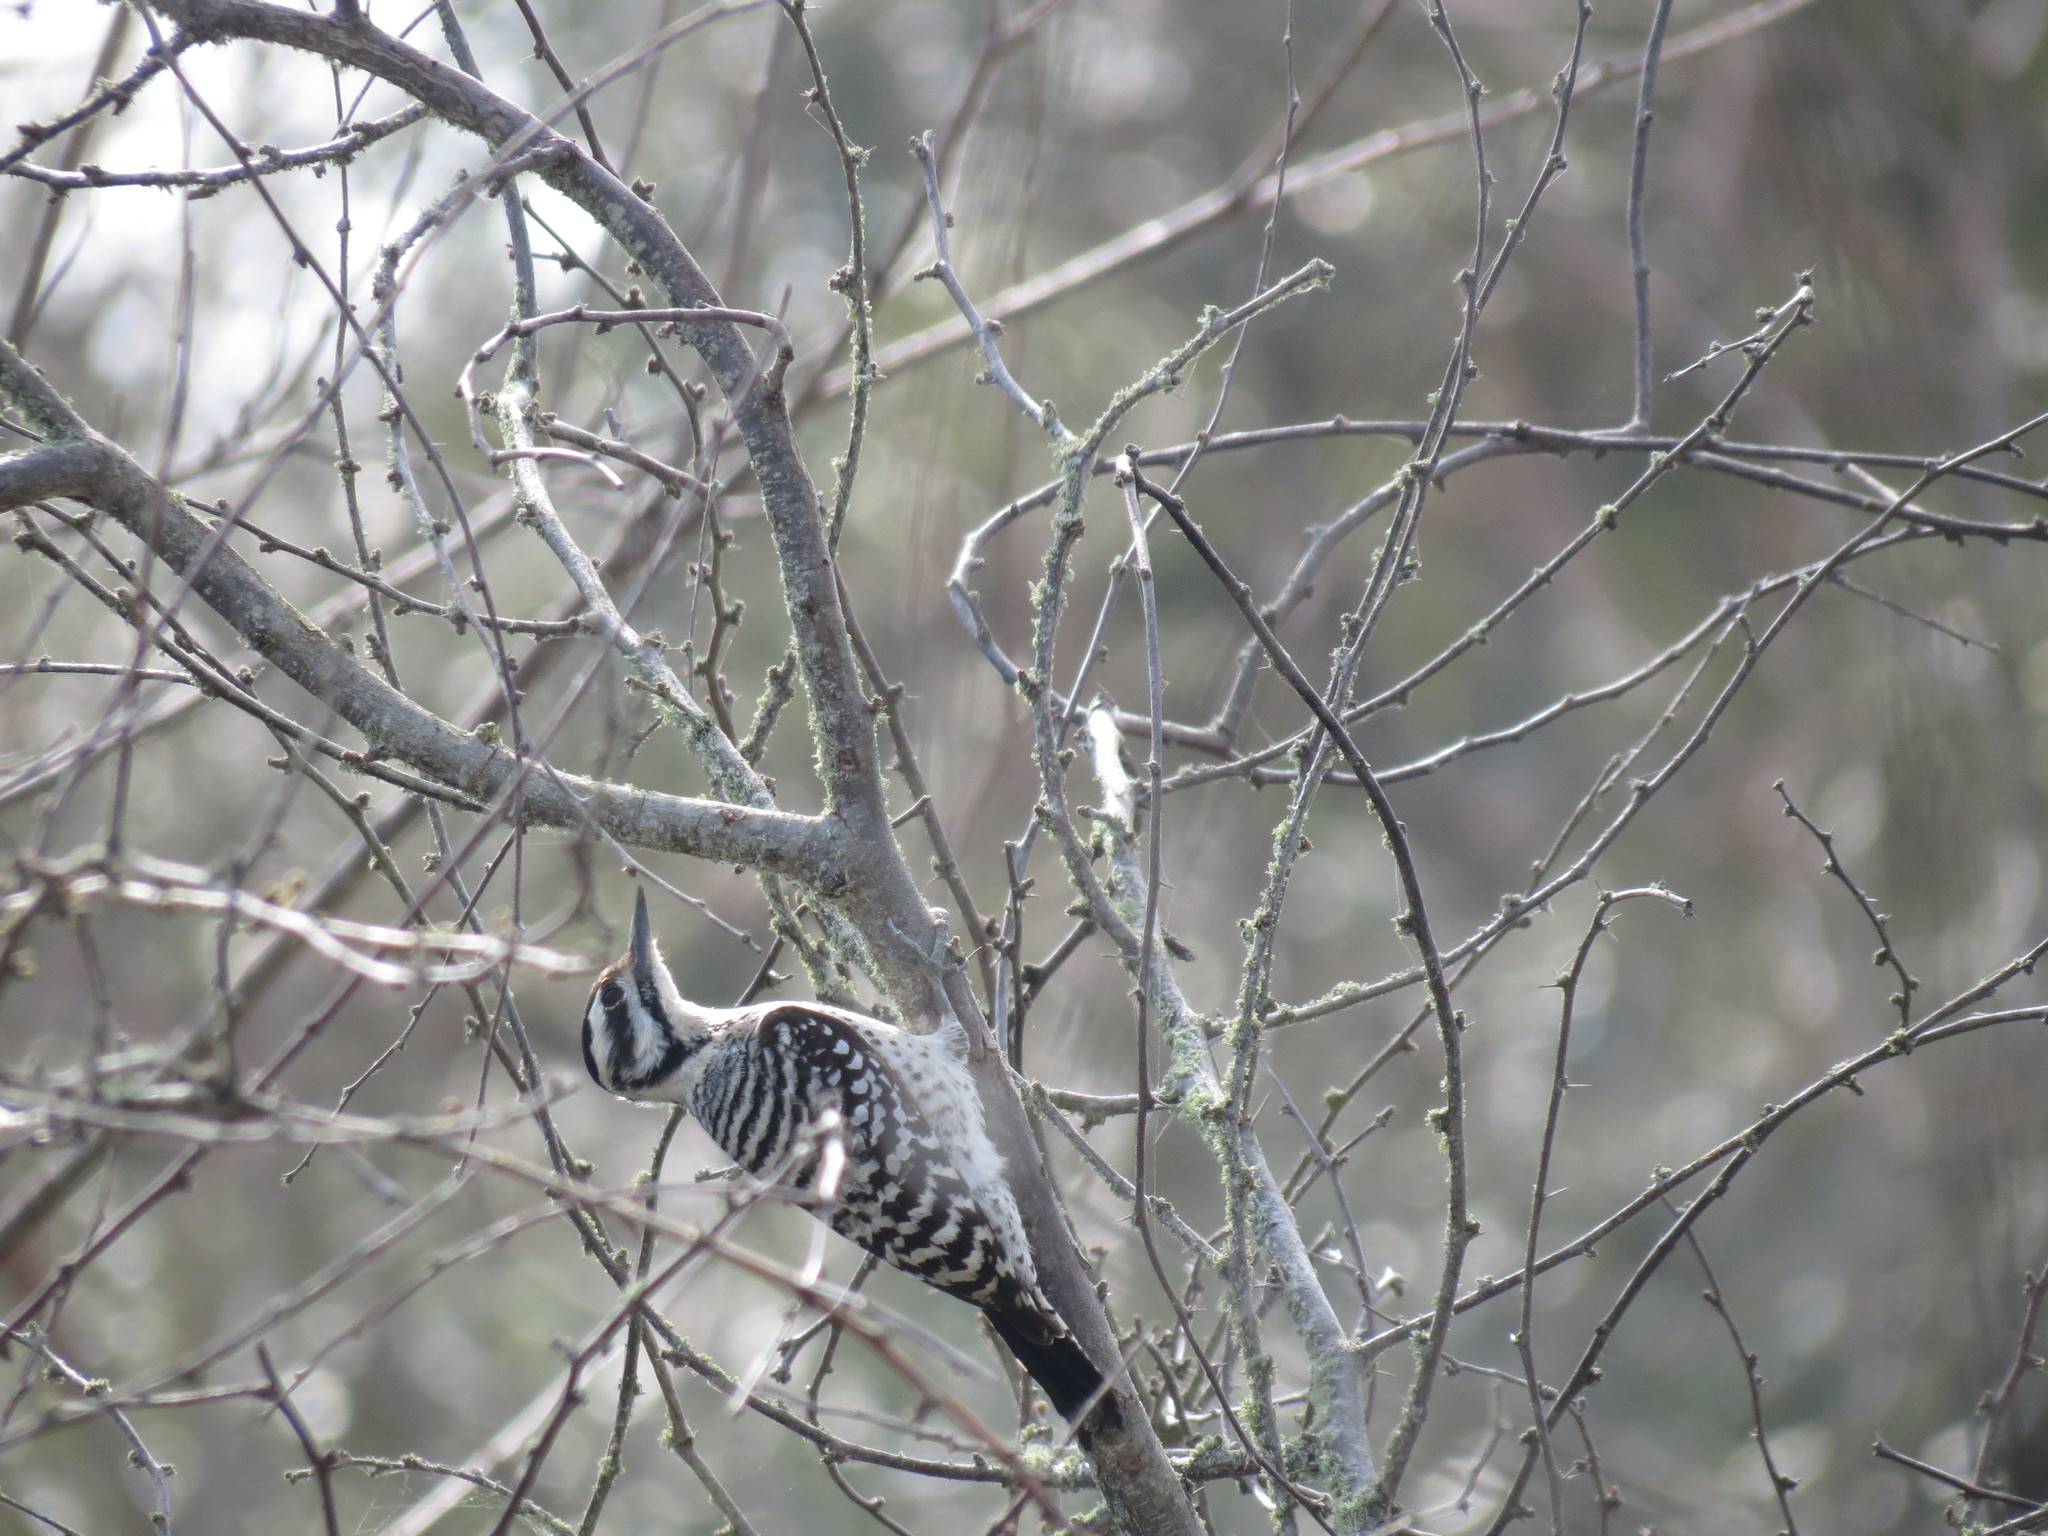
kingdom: Animalia
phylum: Chordata
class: Aves
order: Piciformes
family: Picidae
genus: Dryobates
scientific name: Dryobates scalaris
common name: Ladder-backed woodpecker
